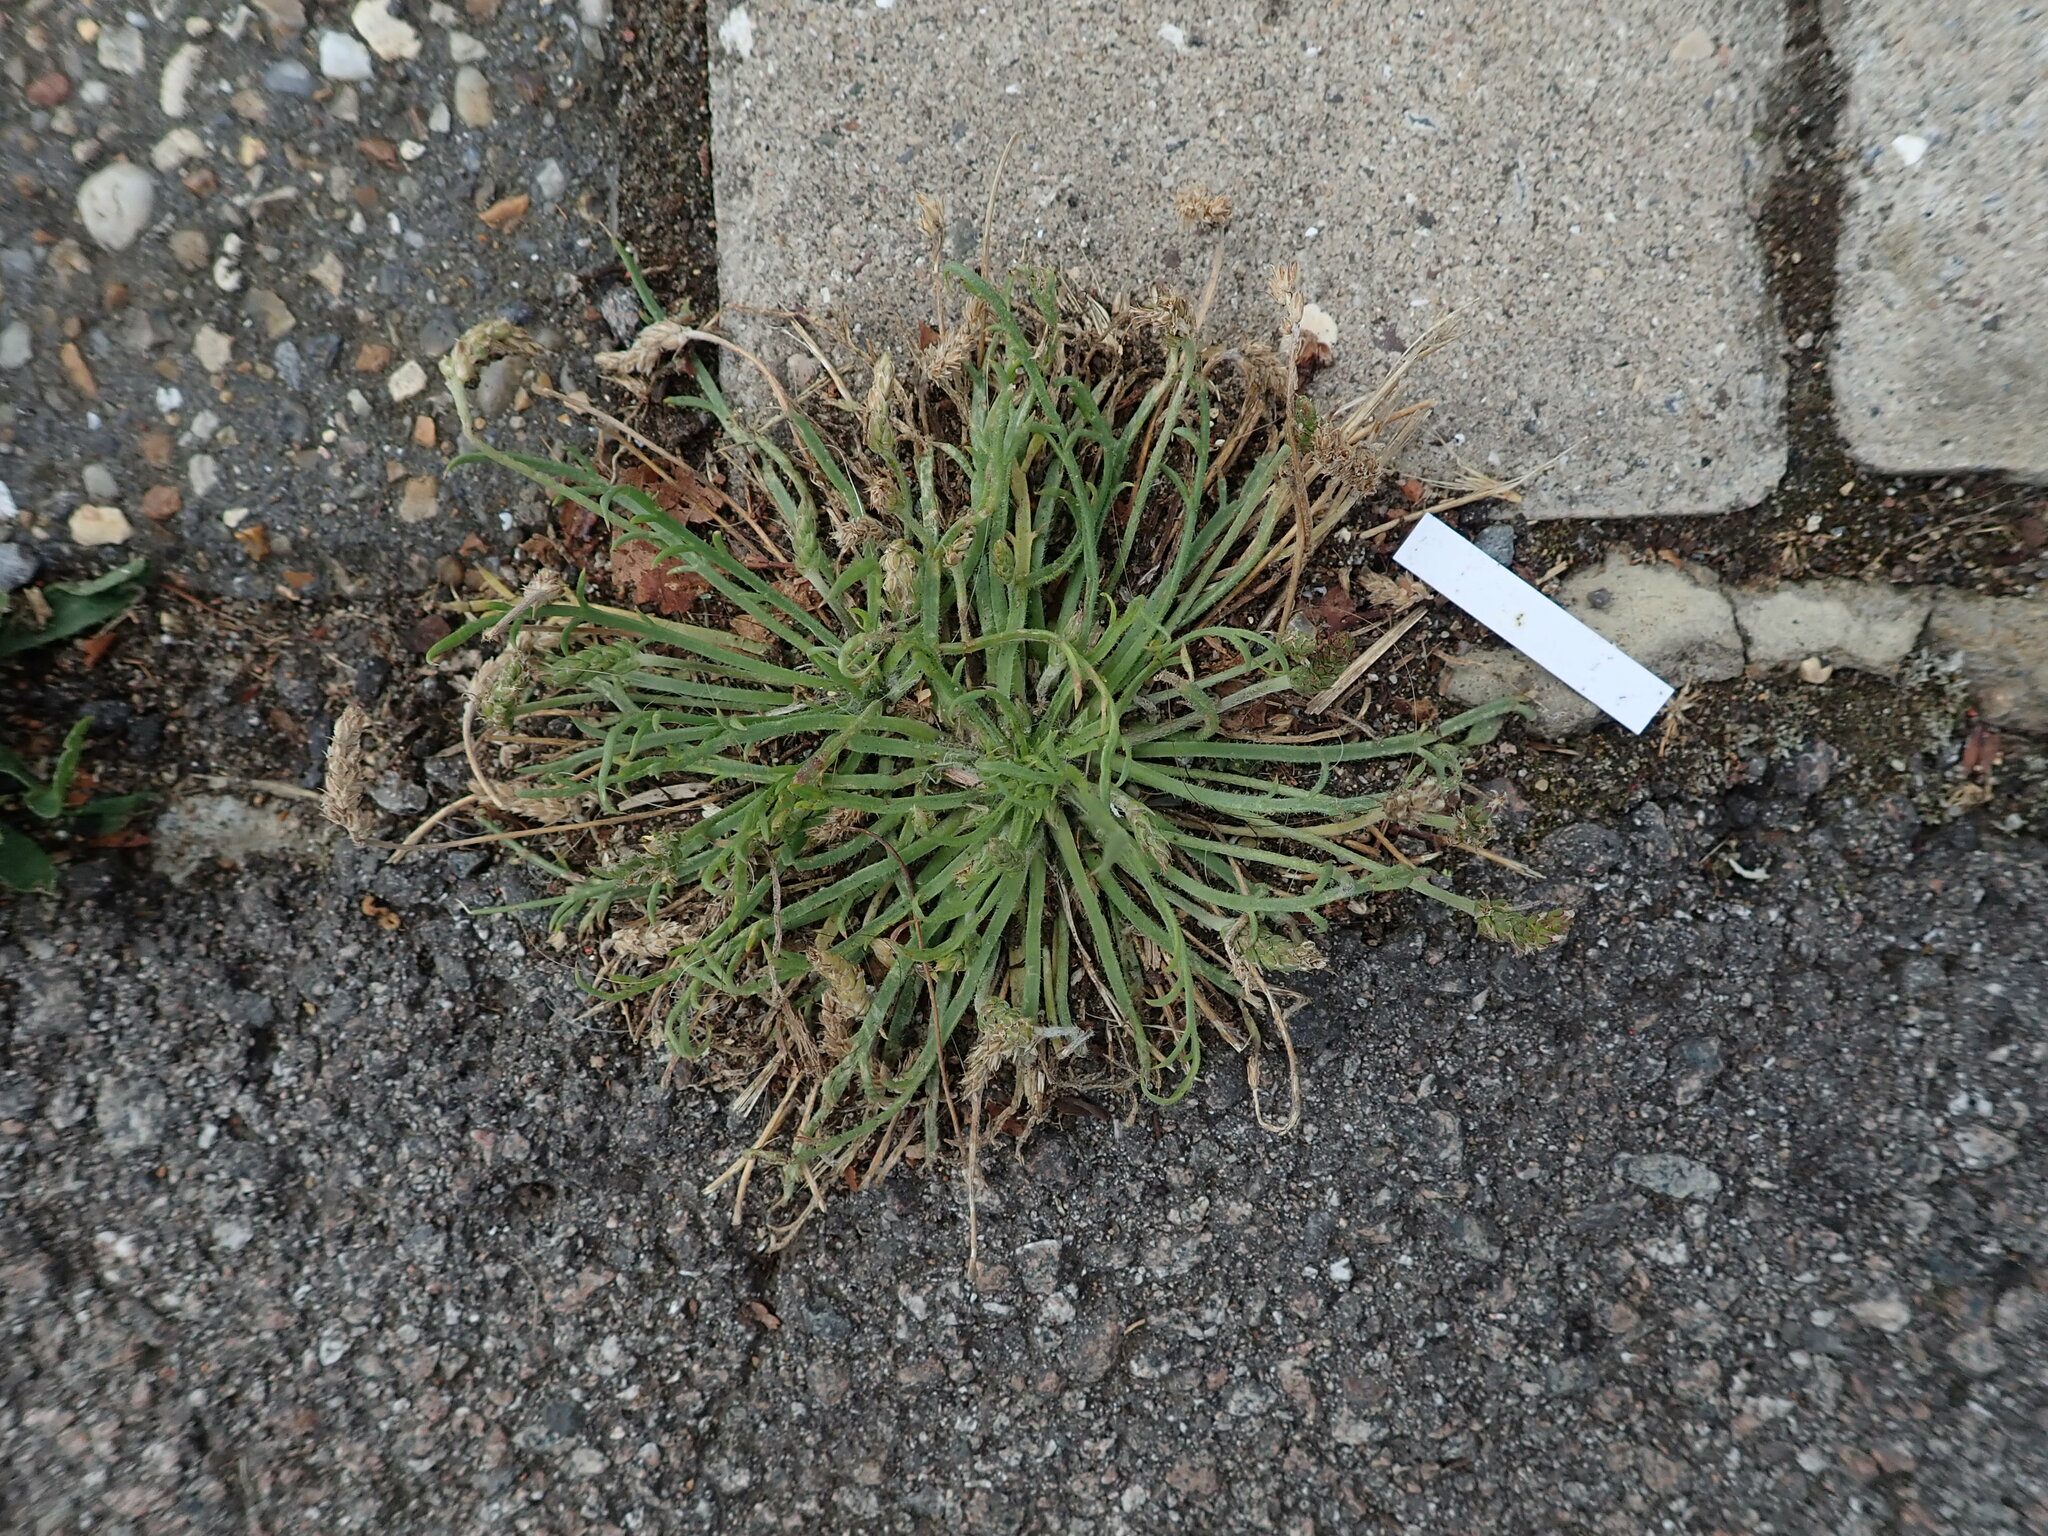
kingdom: Plantae
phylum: Tracheophyta
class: Magnoliopsida
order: Lamiales
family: Plantaginaceae
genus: Plantago
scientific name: Plantago coronopus
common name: Buck's-horn plantain
